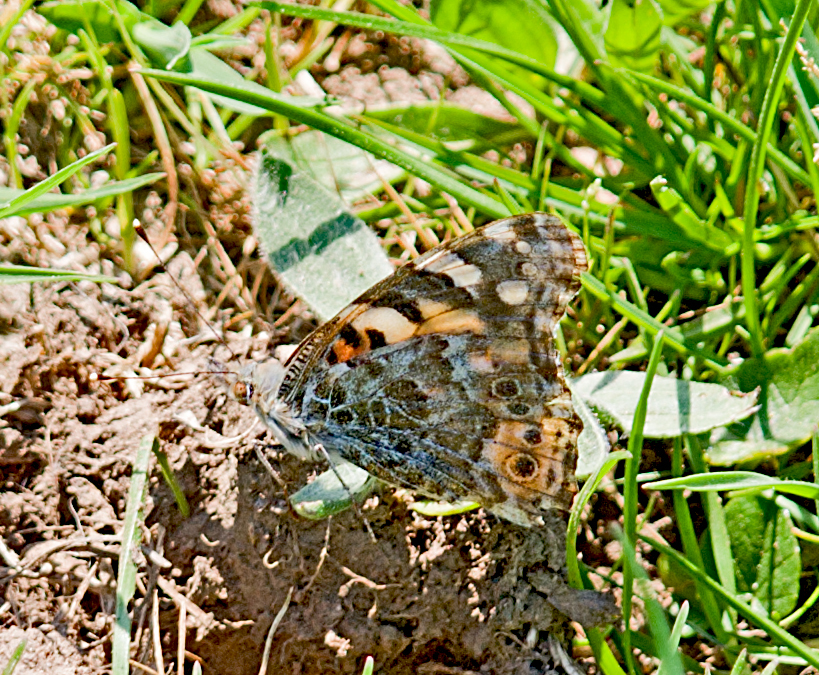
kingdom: Animalia
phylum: Arthropoda
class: Insecta
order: Lepidoptera
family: Nymphalidae
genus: Vanessa
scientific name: Vanessa cardui
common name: Painted lady
